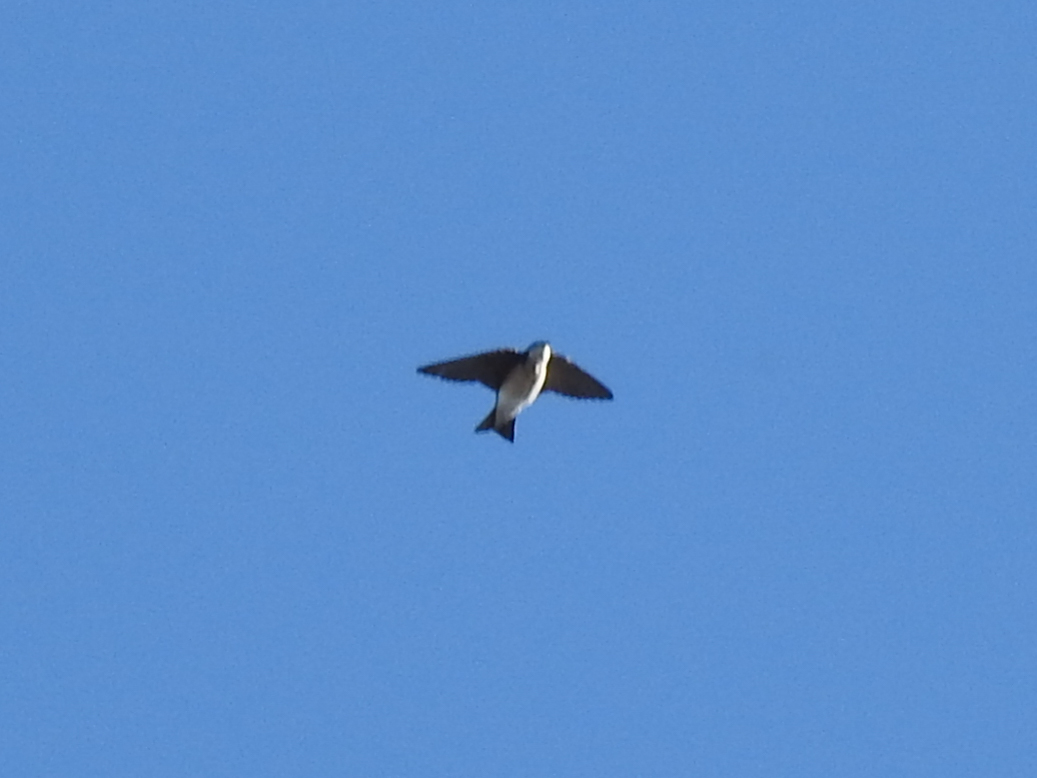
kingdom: Animalia
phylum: Chordata
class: Aves
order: Passeriformes
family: Hirundinidae
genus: Tachycineta
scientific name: Tachycineta bicolor
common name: Tree swallow
